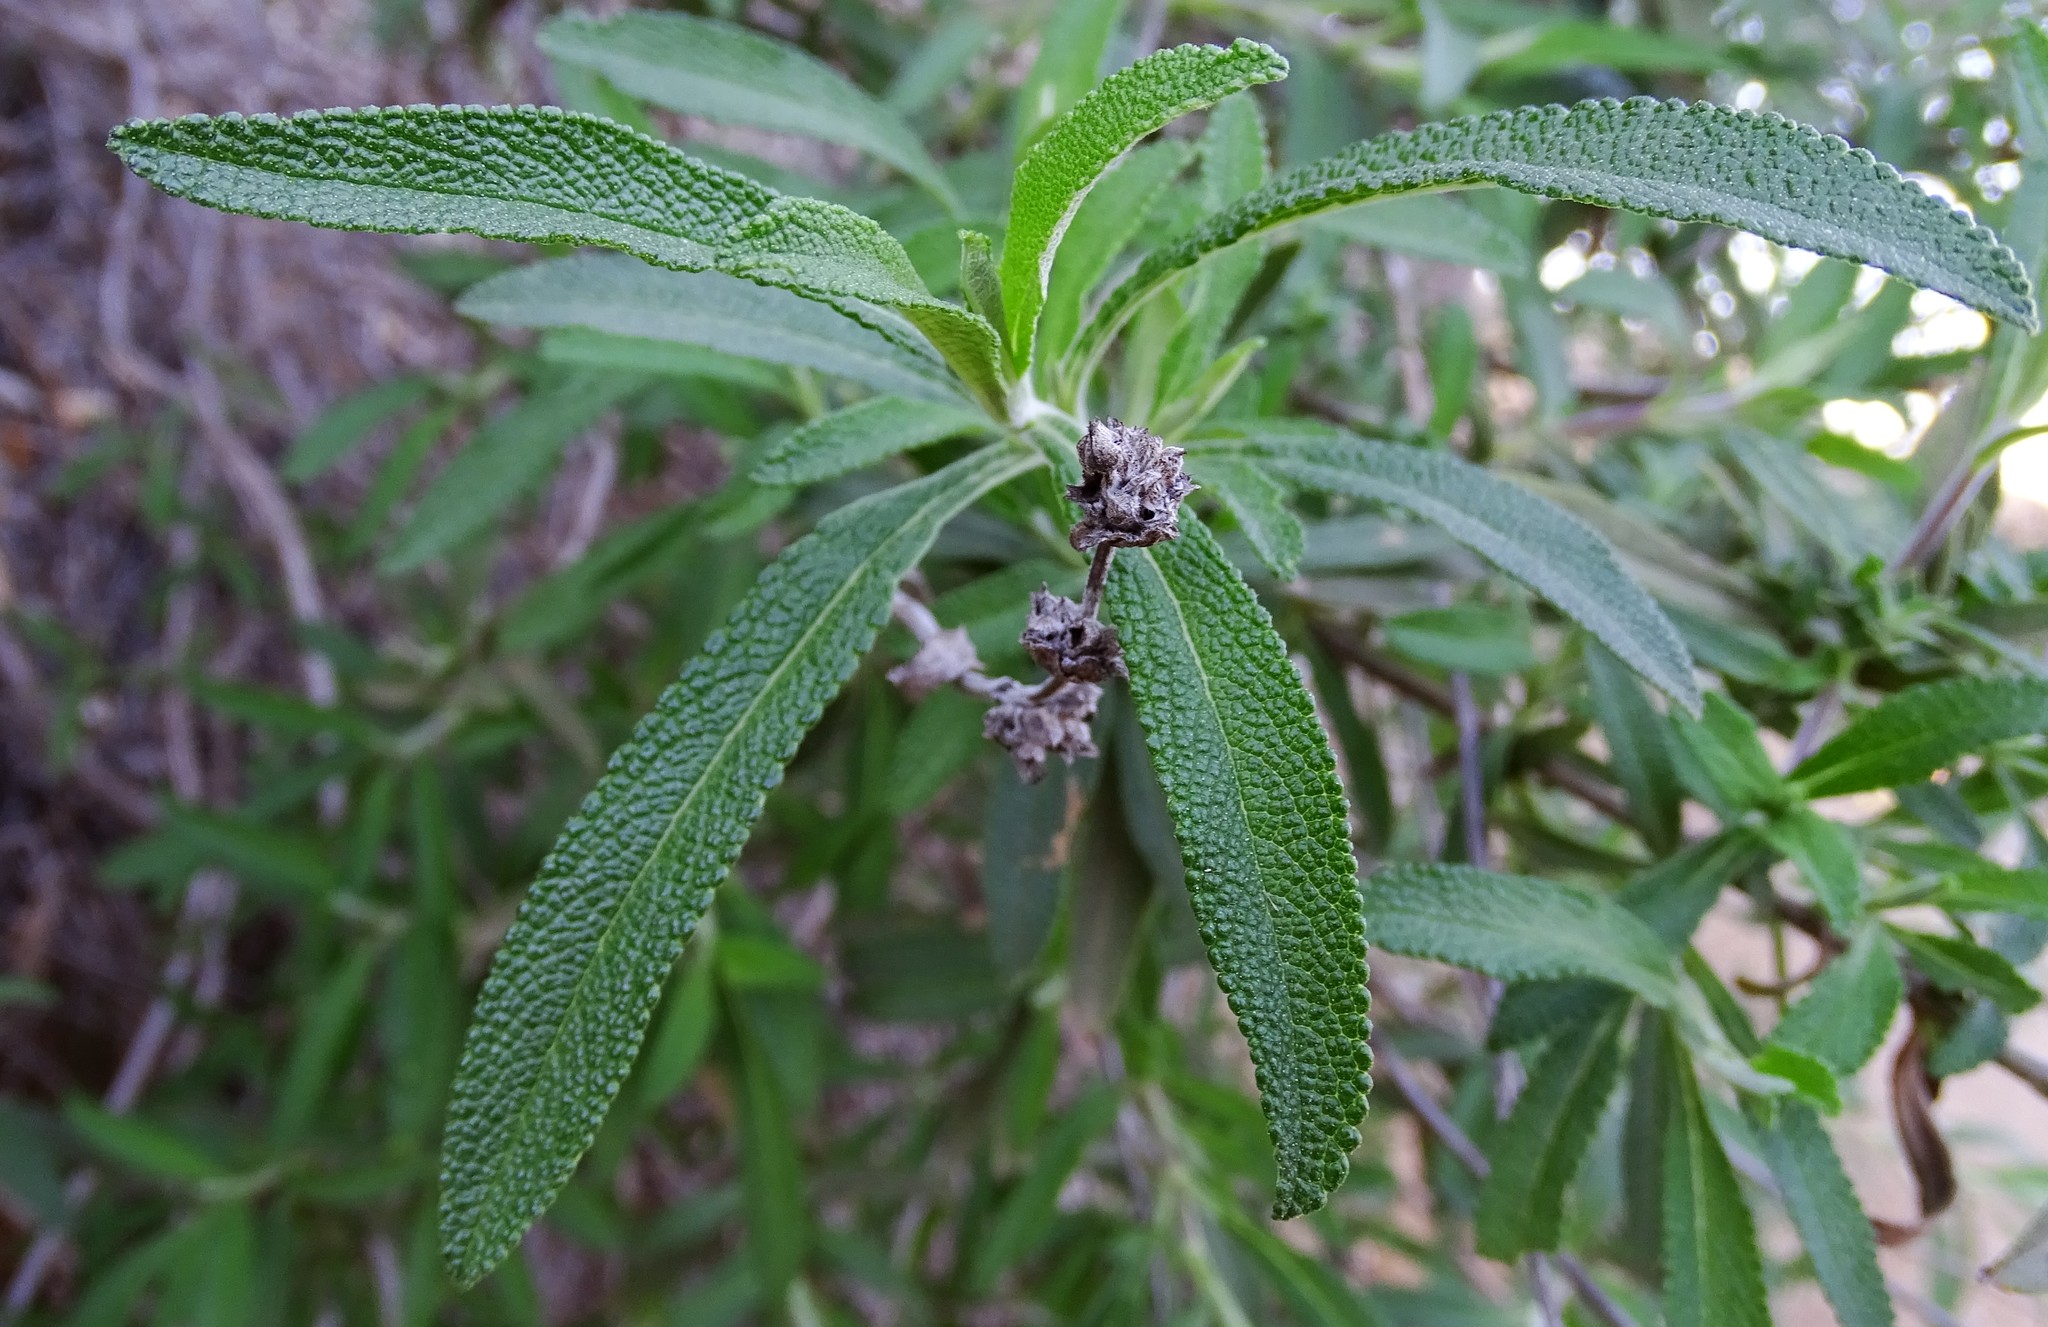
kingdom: Plantae
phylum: Tracheophyta
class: Magnoliopsida
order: Lamiales
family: Lamiaceae
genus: Salvia
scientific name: Salvia mellifera
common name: Black sage
